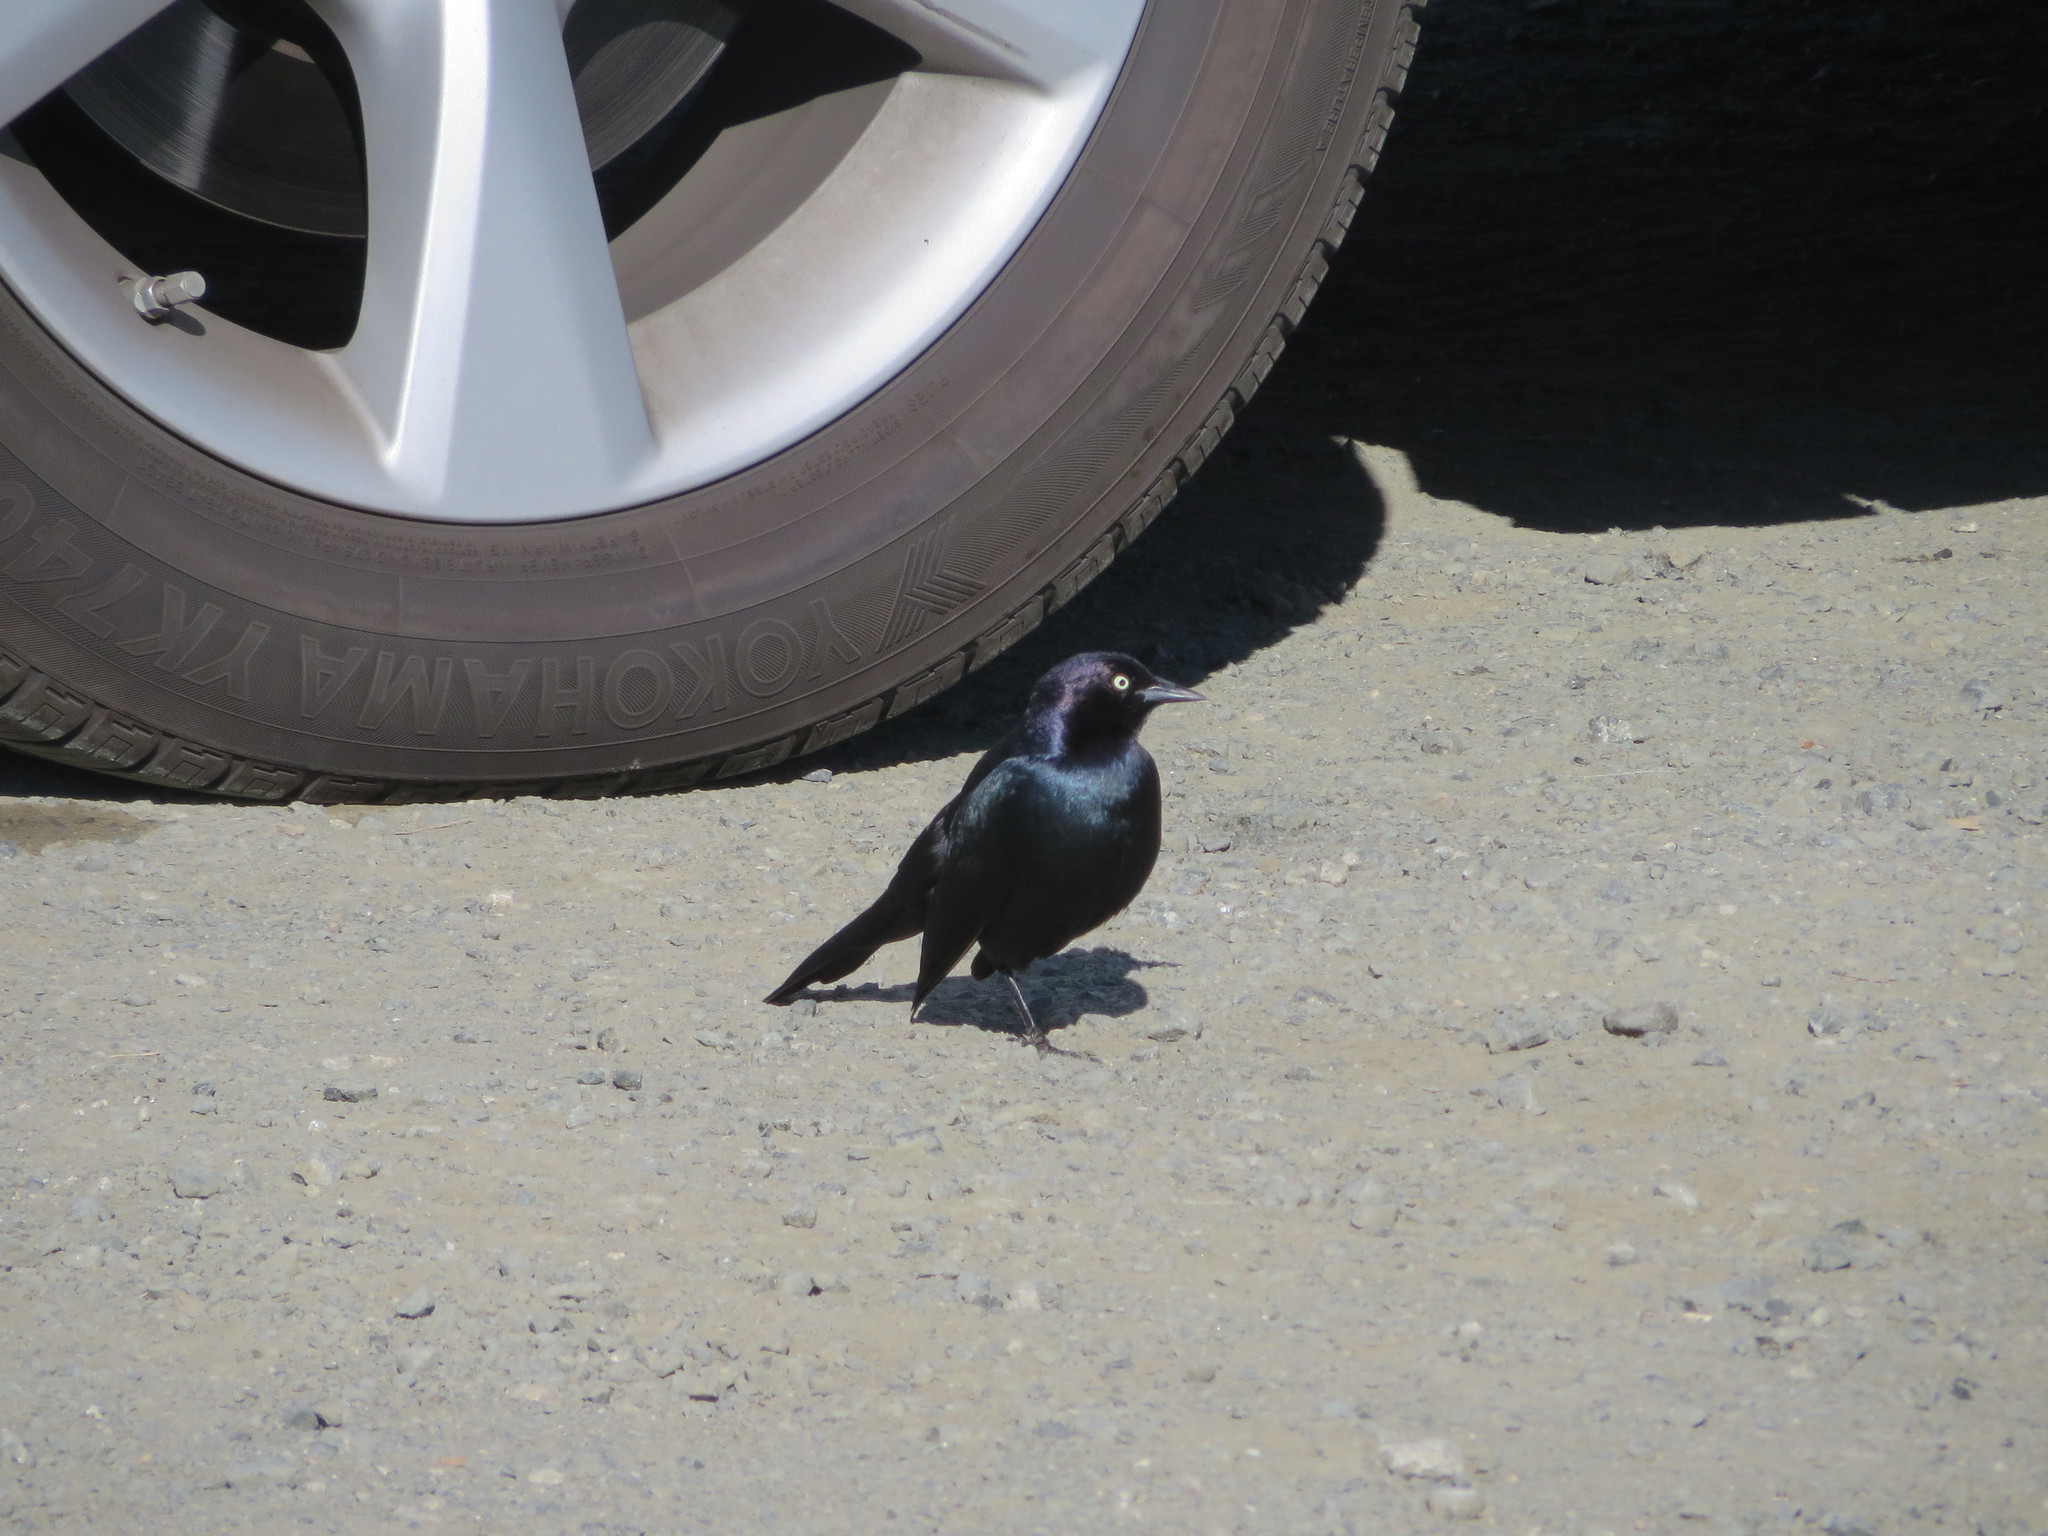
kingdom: Animalia
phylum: Chordata
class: Aves
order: Passeriformes
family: Icteridae
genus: Euphagus
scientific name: Euphagus cyanocephalus
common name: Brewer's blackbird
